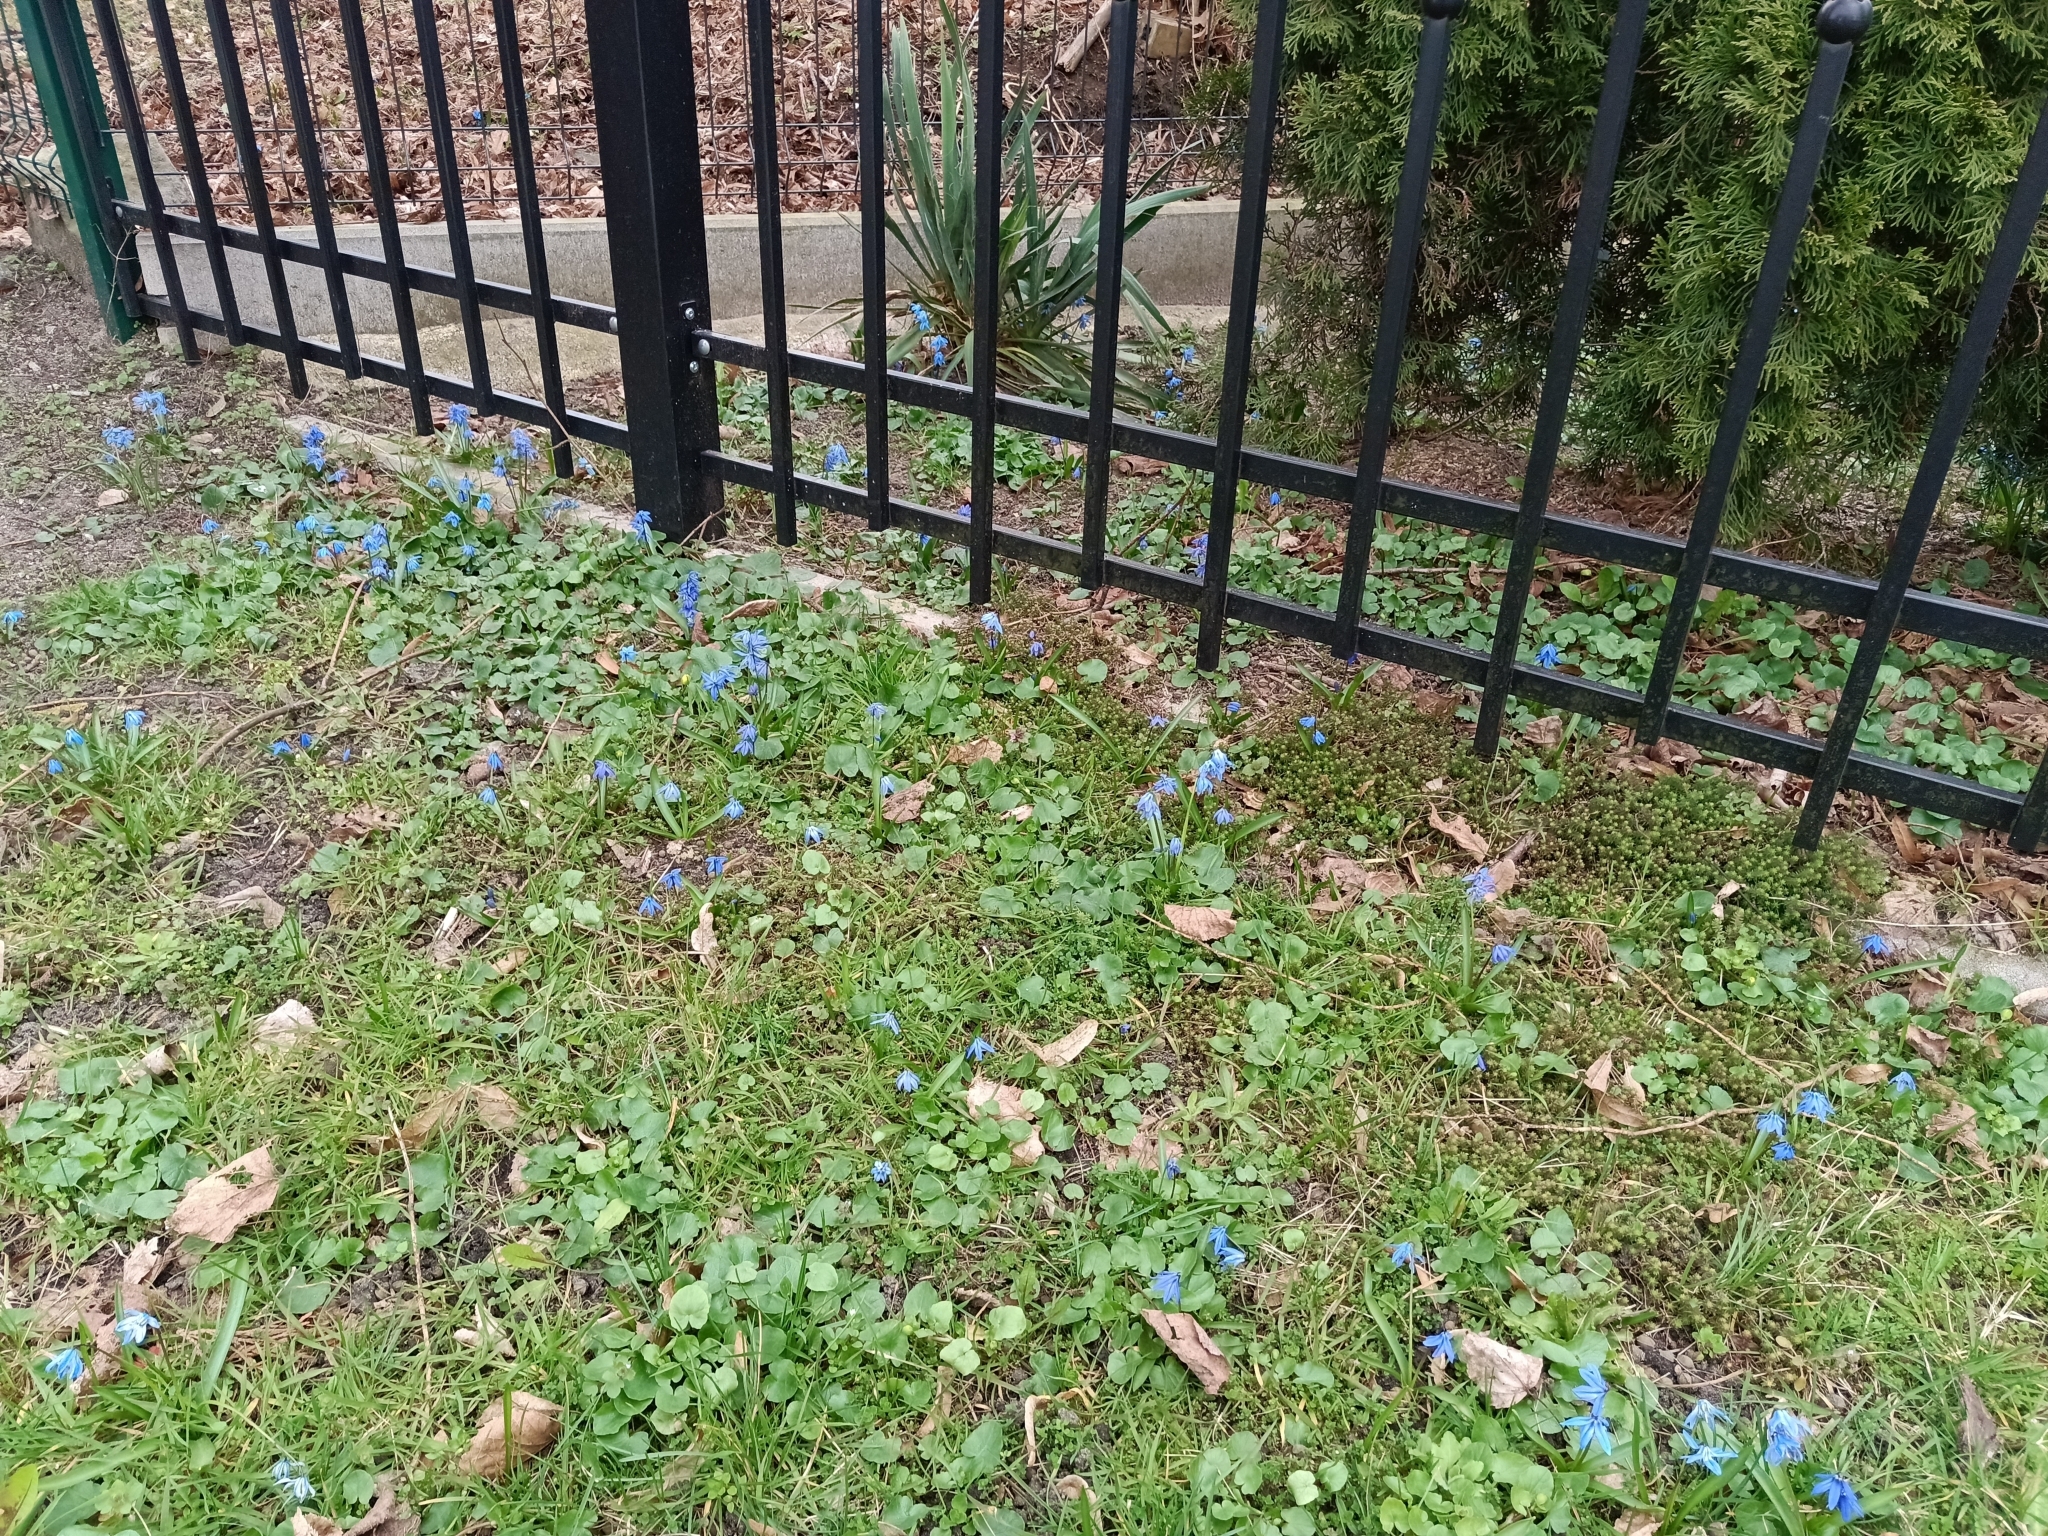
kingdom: Plantae
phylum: Tracheophyta
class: Liliopsida
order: Asparagales
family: Asparagaceae
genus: Scilla
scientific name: Scilla siberica
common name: Siberian squill
